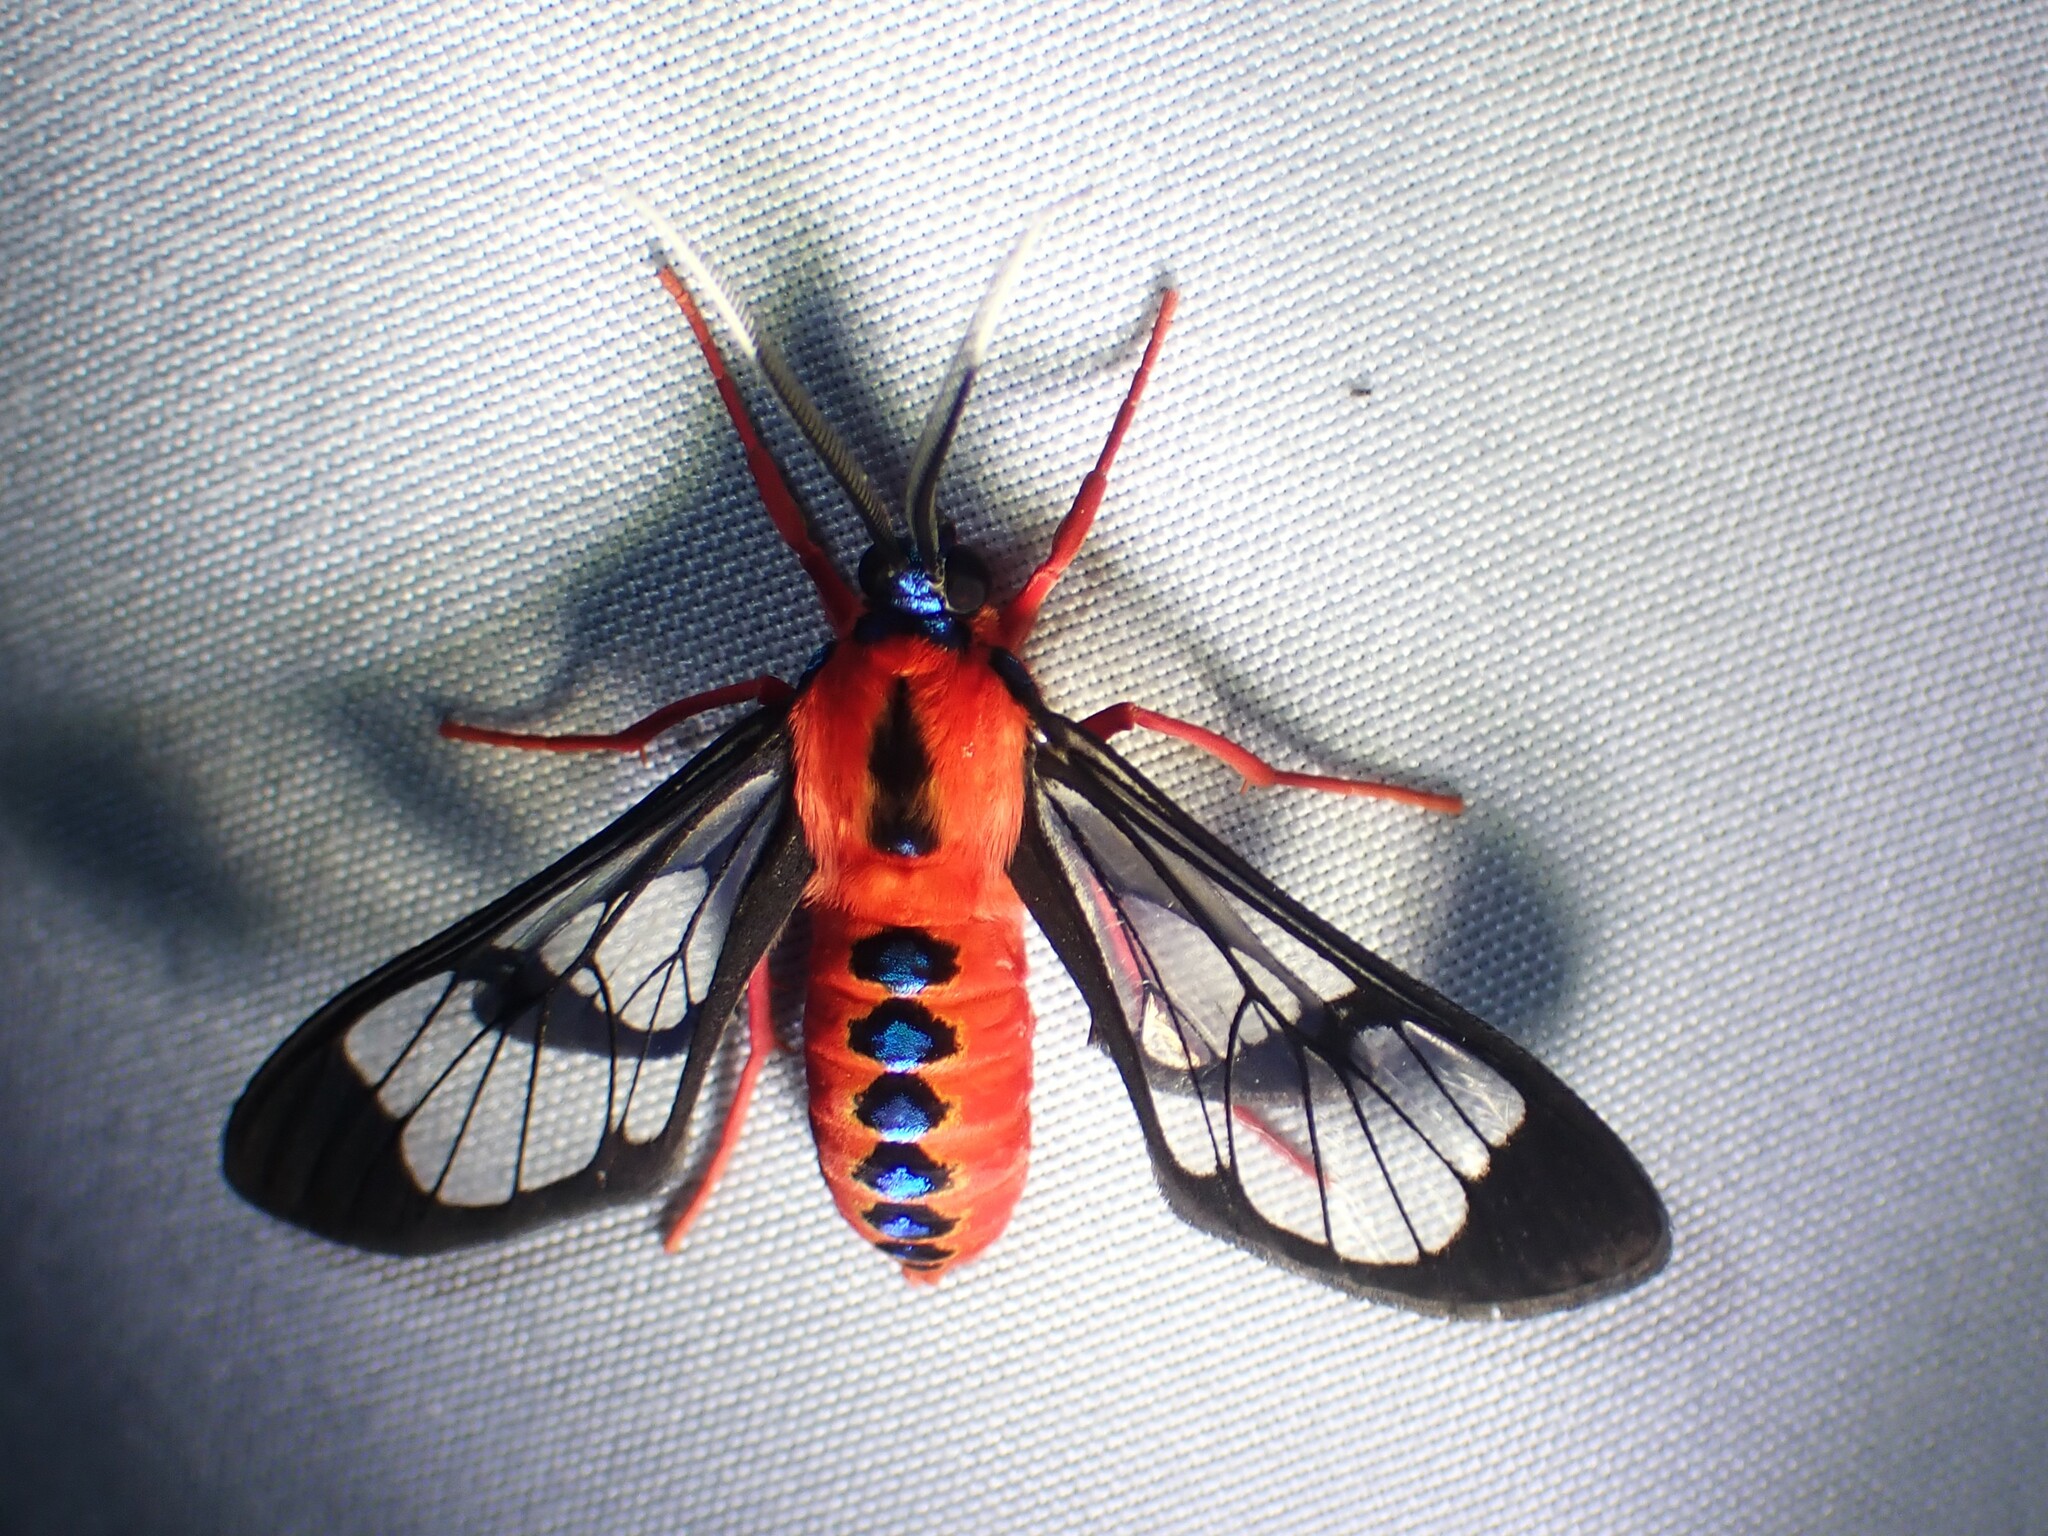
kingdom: Animalia
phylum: Arthropoda
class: Insecta
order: Lepidoptera
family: Erebidae
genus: Cosmosoma
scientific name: Cosmosoma demantria
